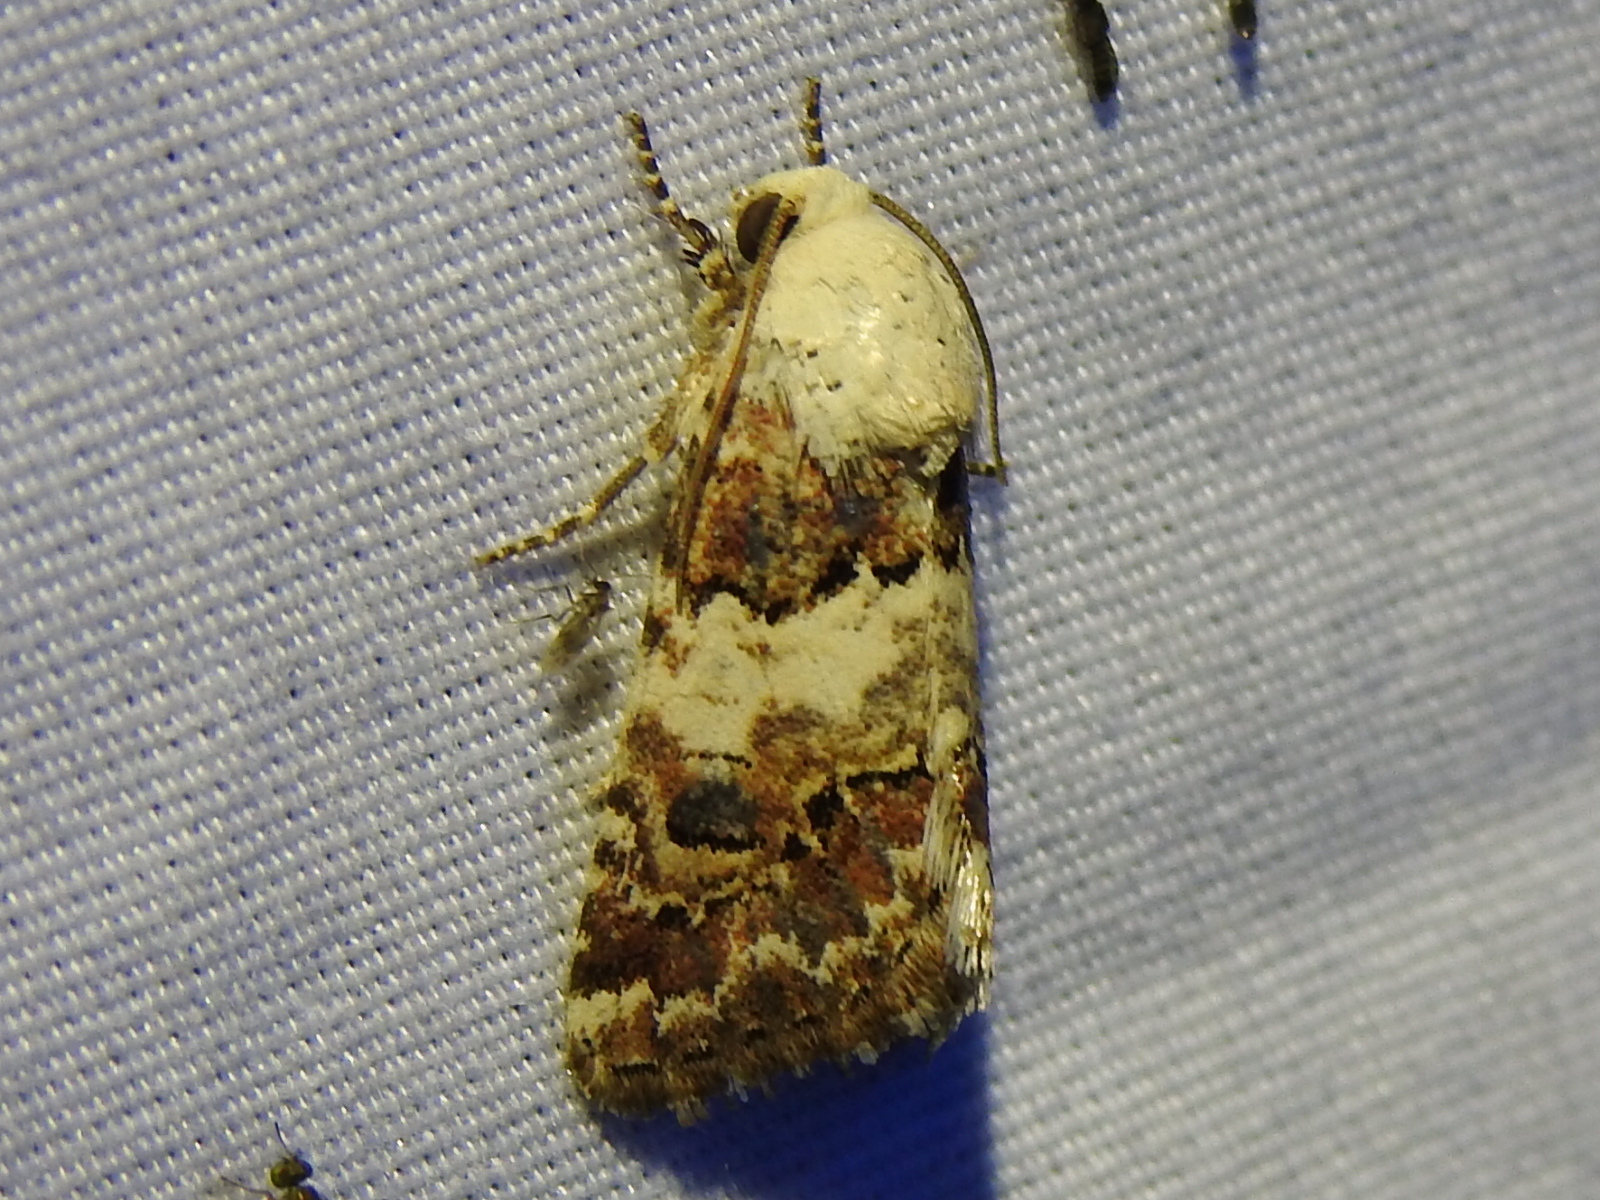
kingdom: Animalia
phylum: Arthropoda
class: Insecta
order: Lepidoptera
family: Noctuidae
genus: Schinia
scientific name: Schinia tertia
